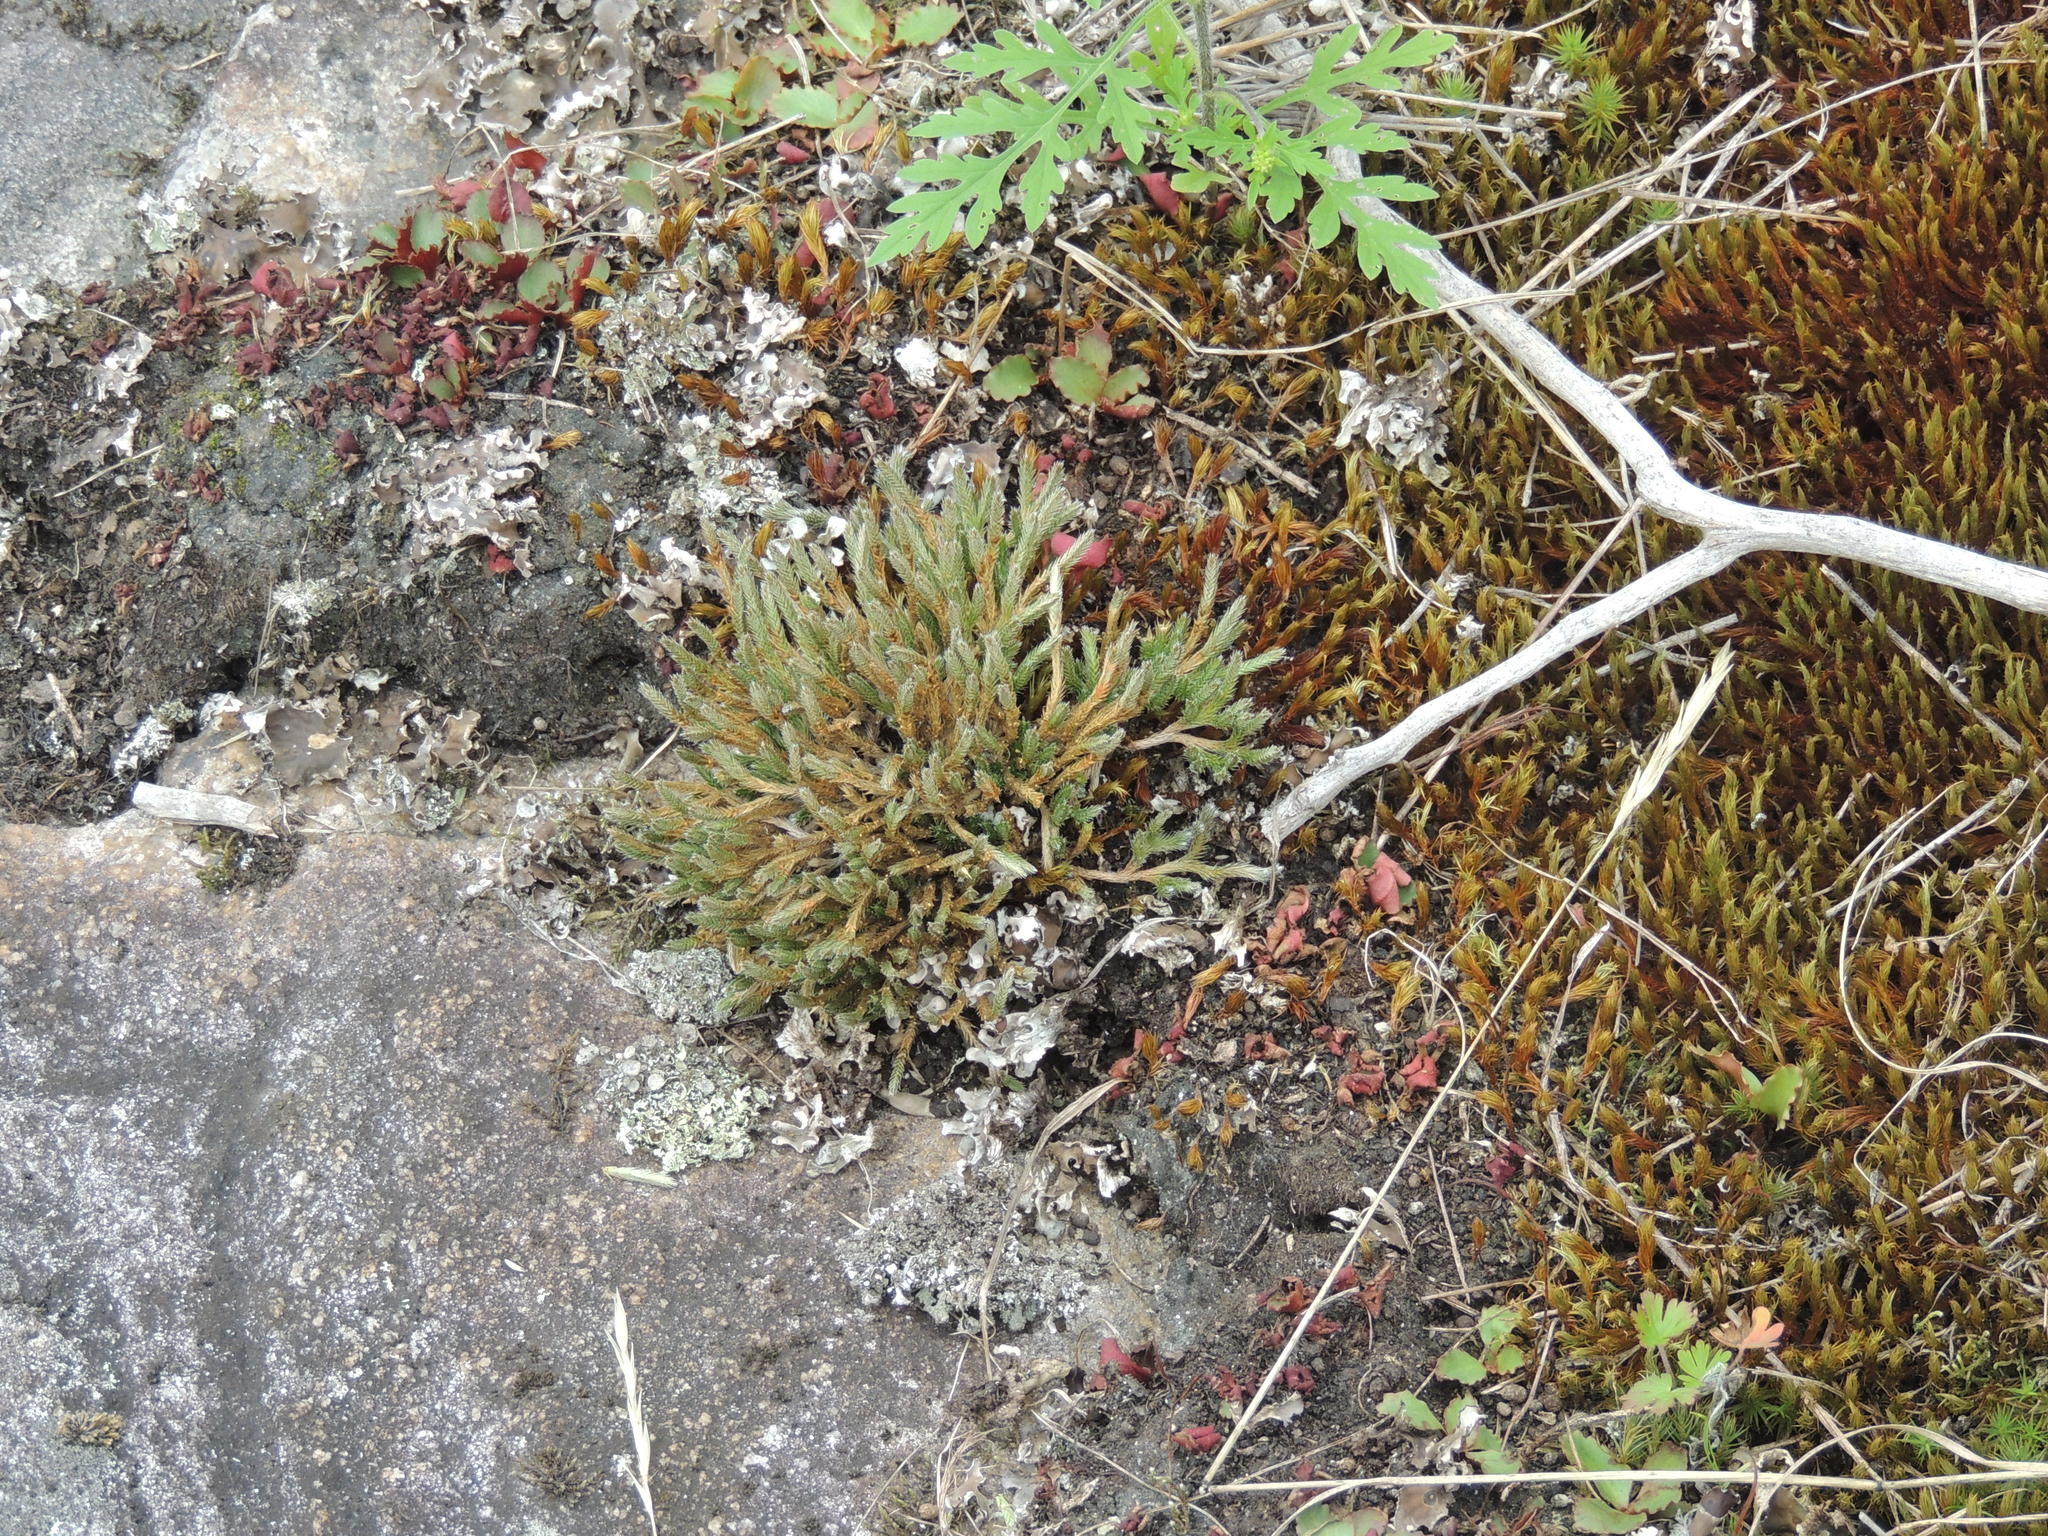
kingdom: Plantae
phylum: Tracheophyta
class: Lycopodiopsida
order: Selaginellales
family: Selaginellaceae
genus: Selaginella
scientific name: Selaginella rupestris
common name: Dwarf spikemoss
